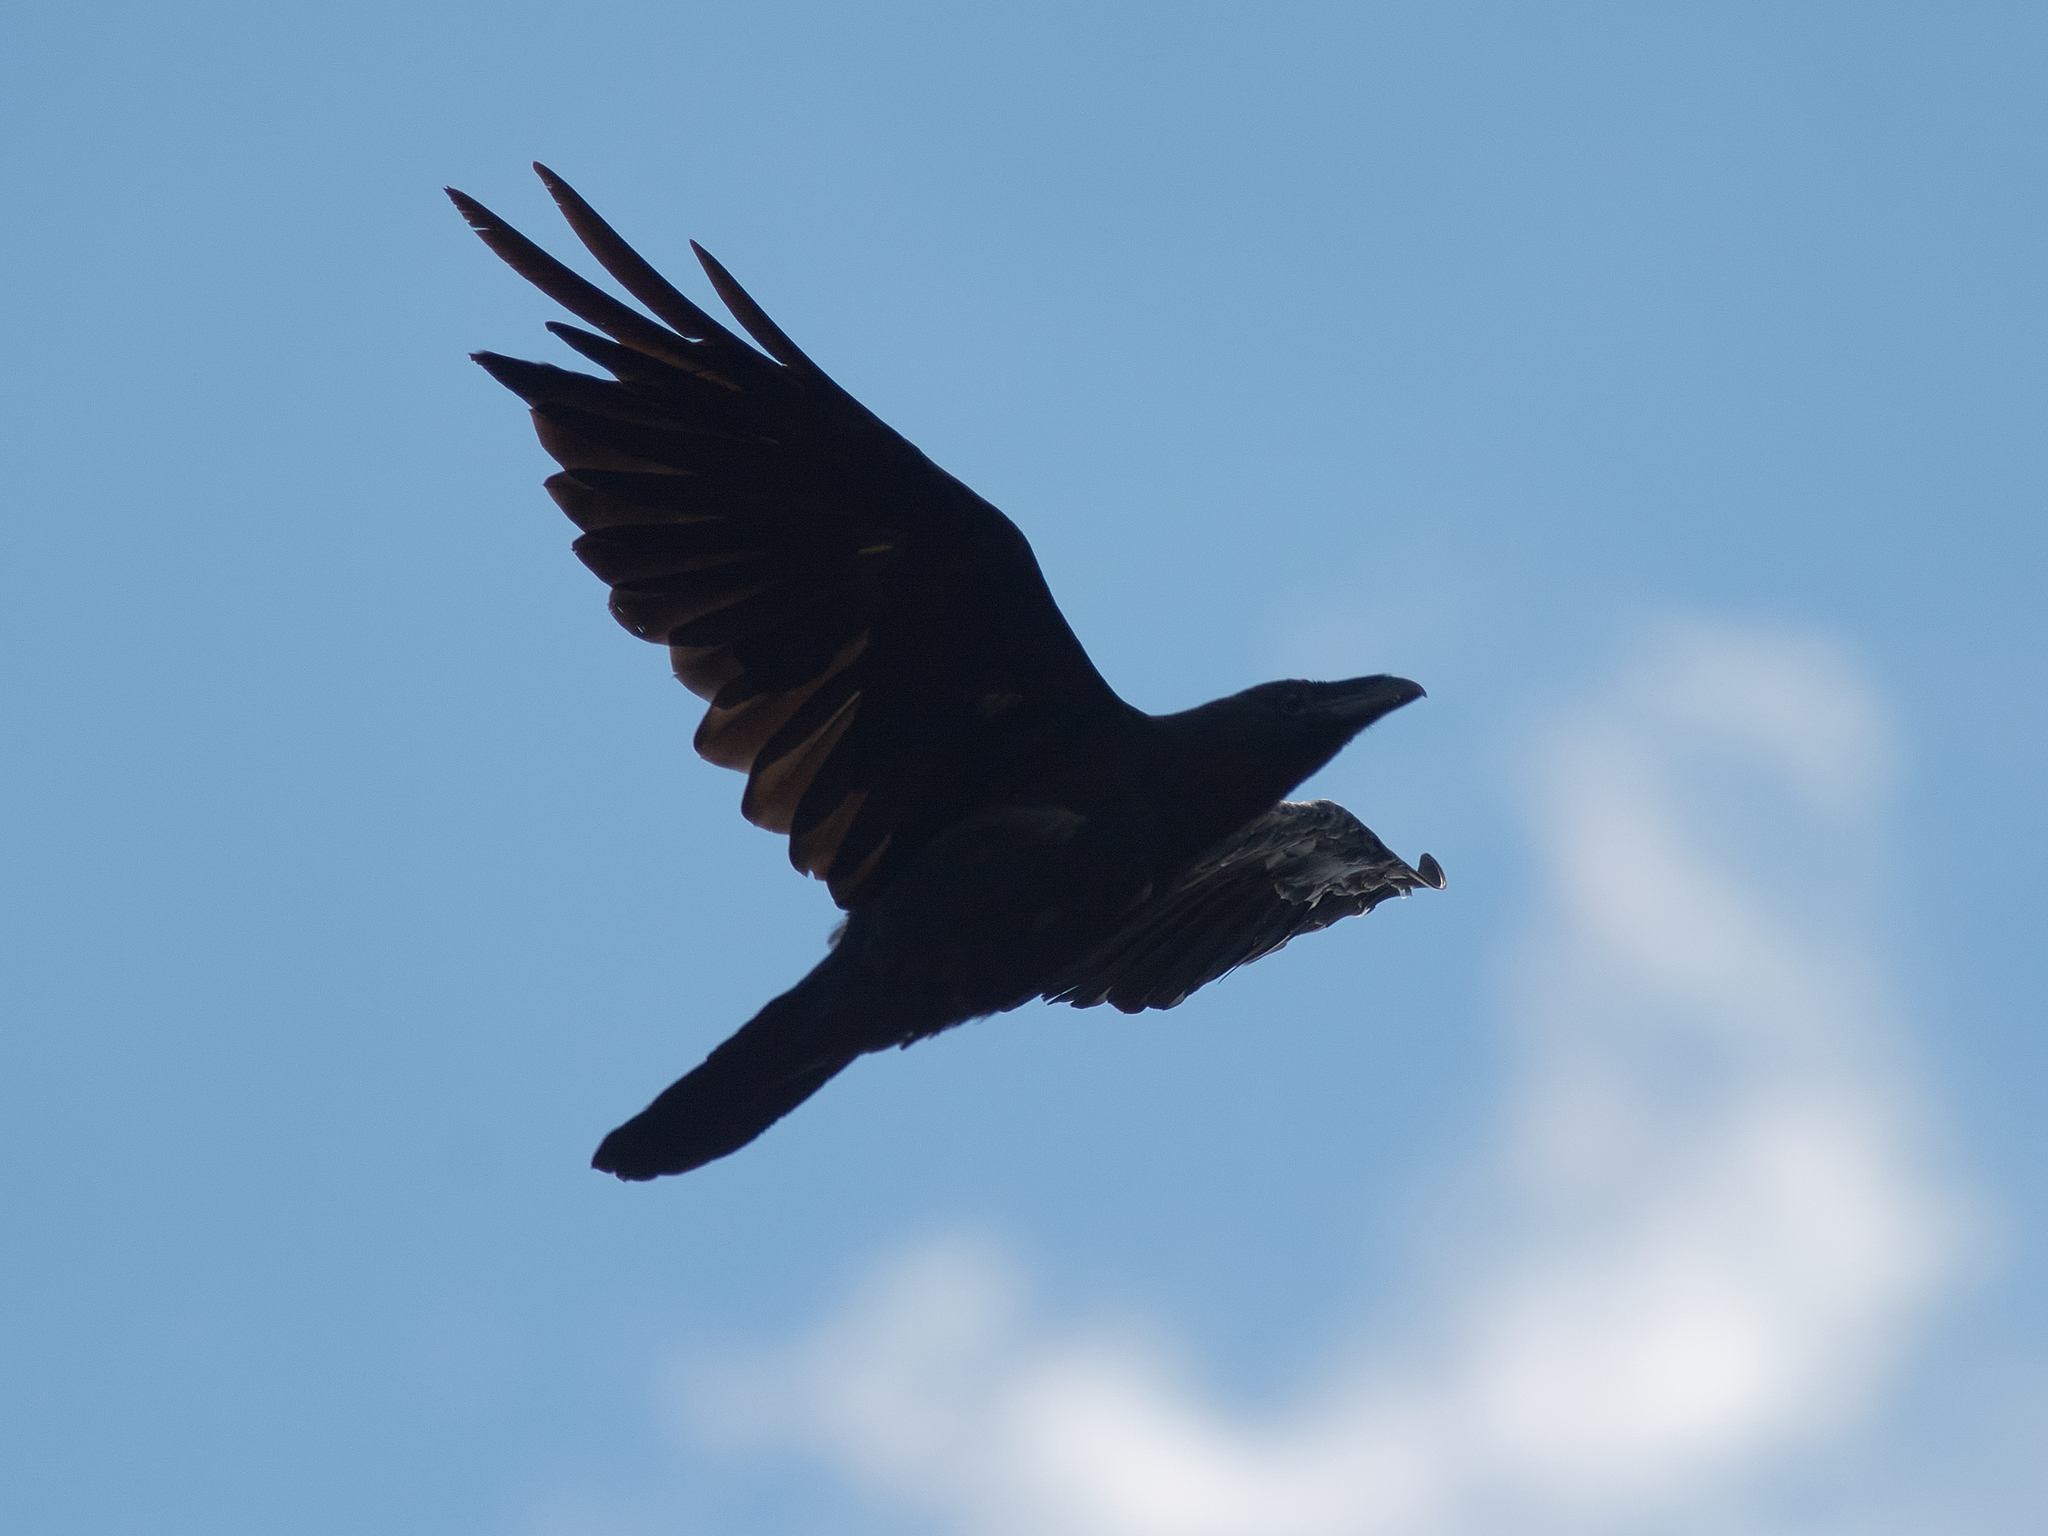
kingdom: Animalia
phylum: Chordata
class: Aves
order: Passeriformes
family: Corvidae
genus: Corvus
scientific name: Corvus corax
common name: Common raven
